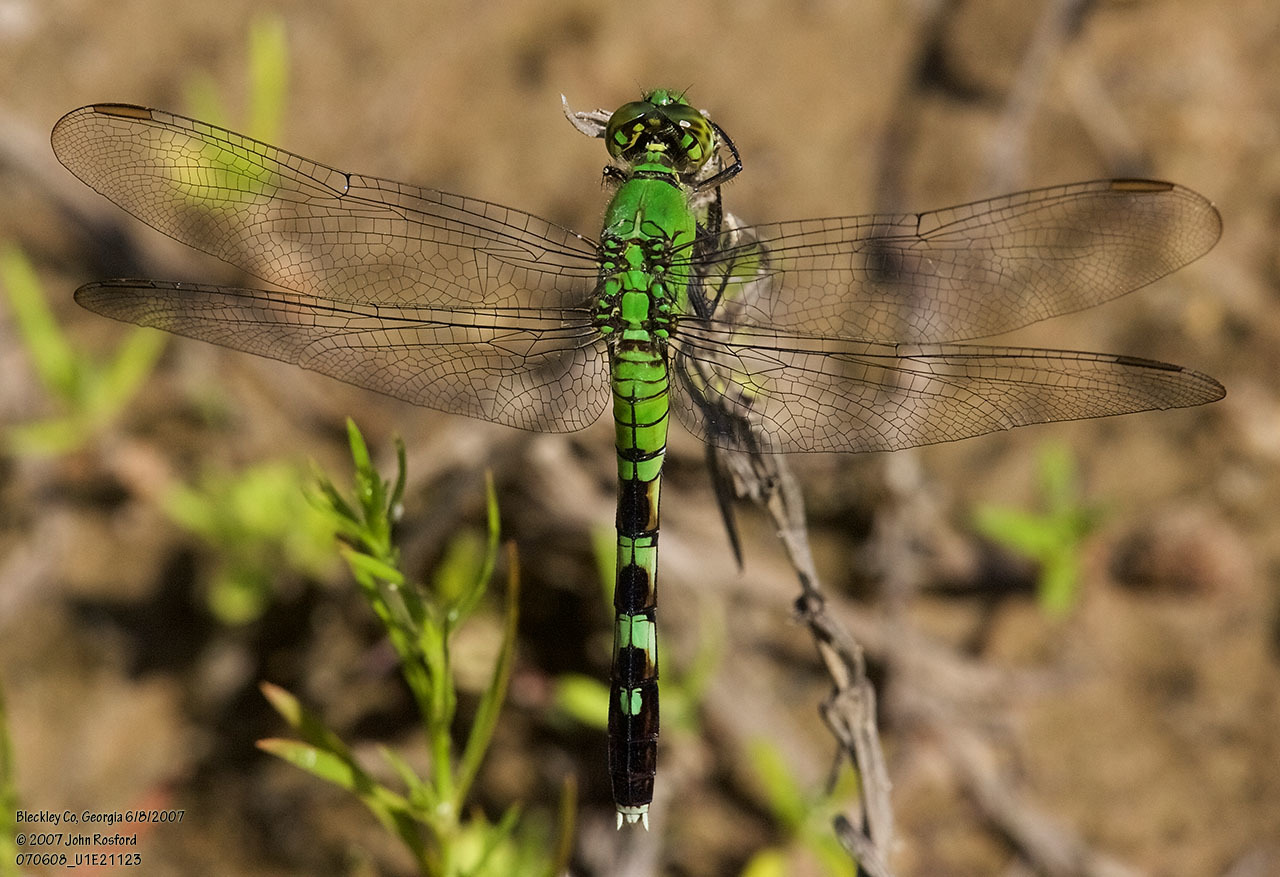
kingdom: Animalia
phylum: Arthropoda
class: Insecta
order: Odonata
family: Libellulidae
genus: Erythemis
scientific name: Erythemis simplicicollis
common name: Eastern pondhawk
